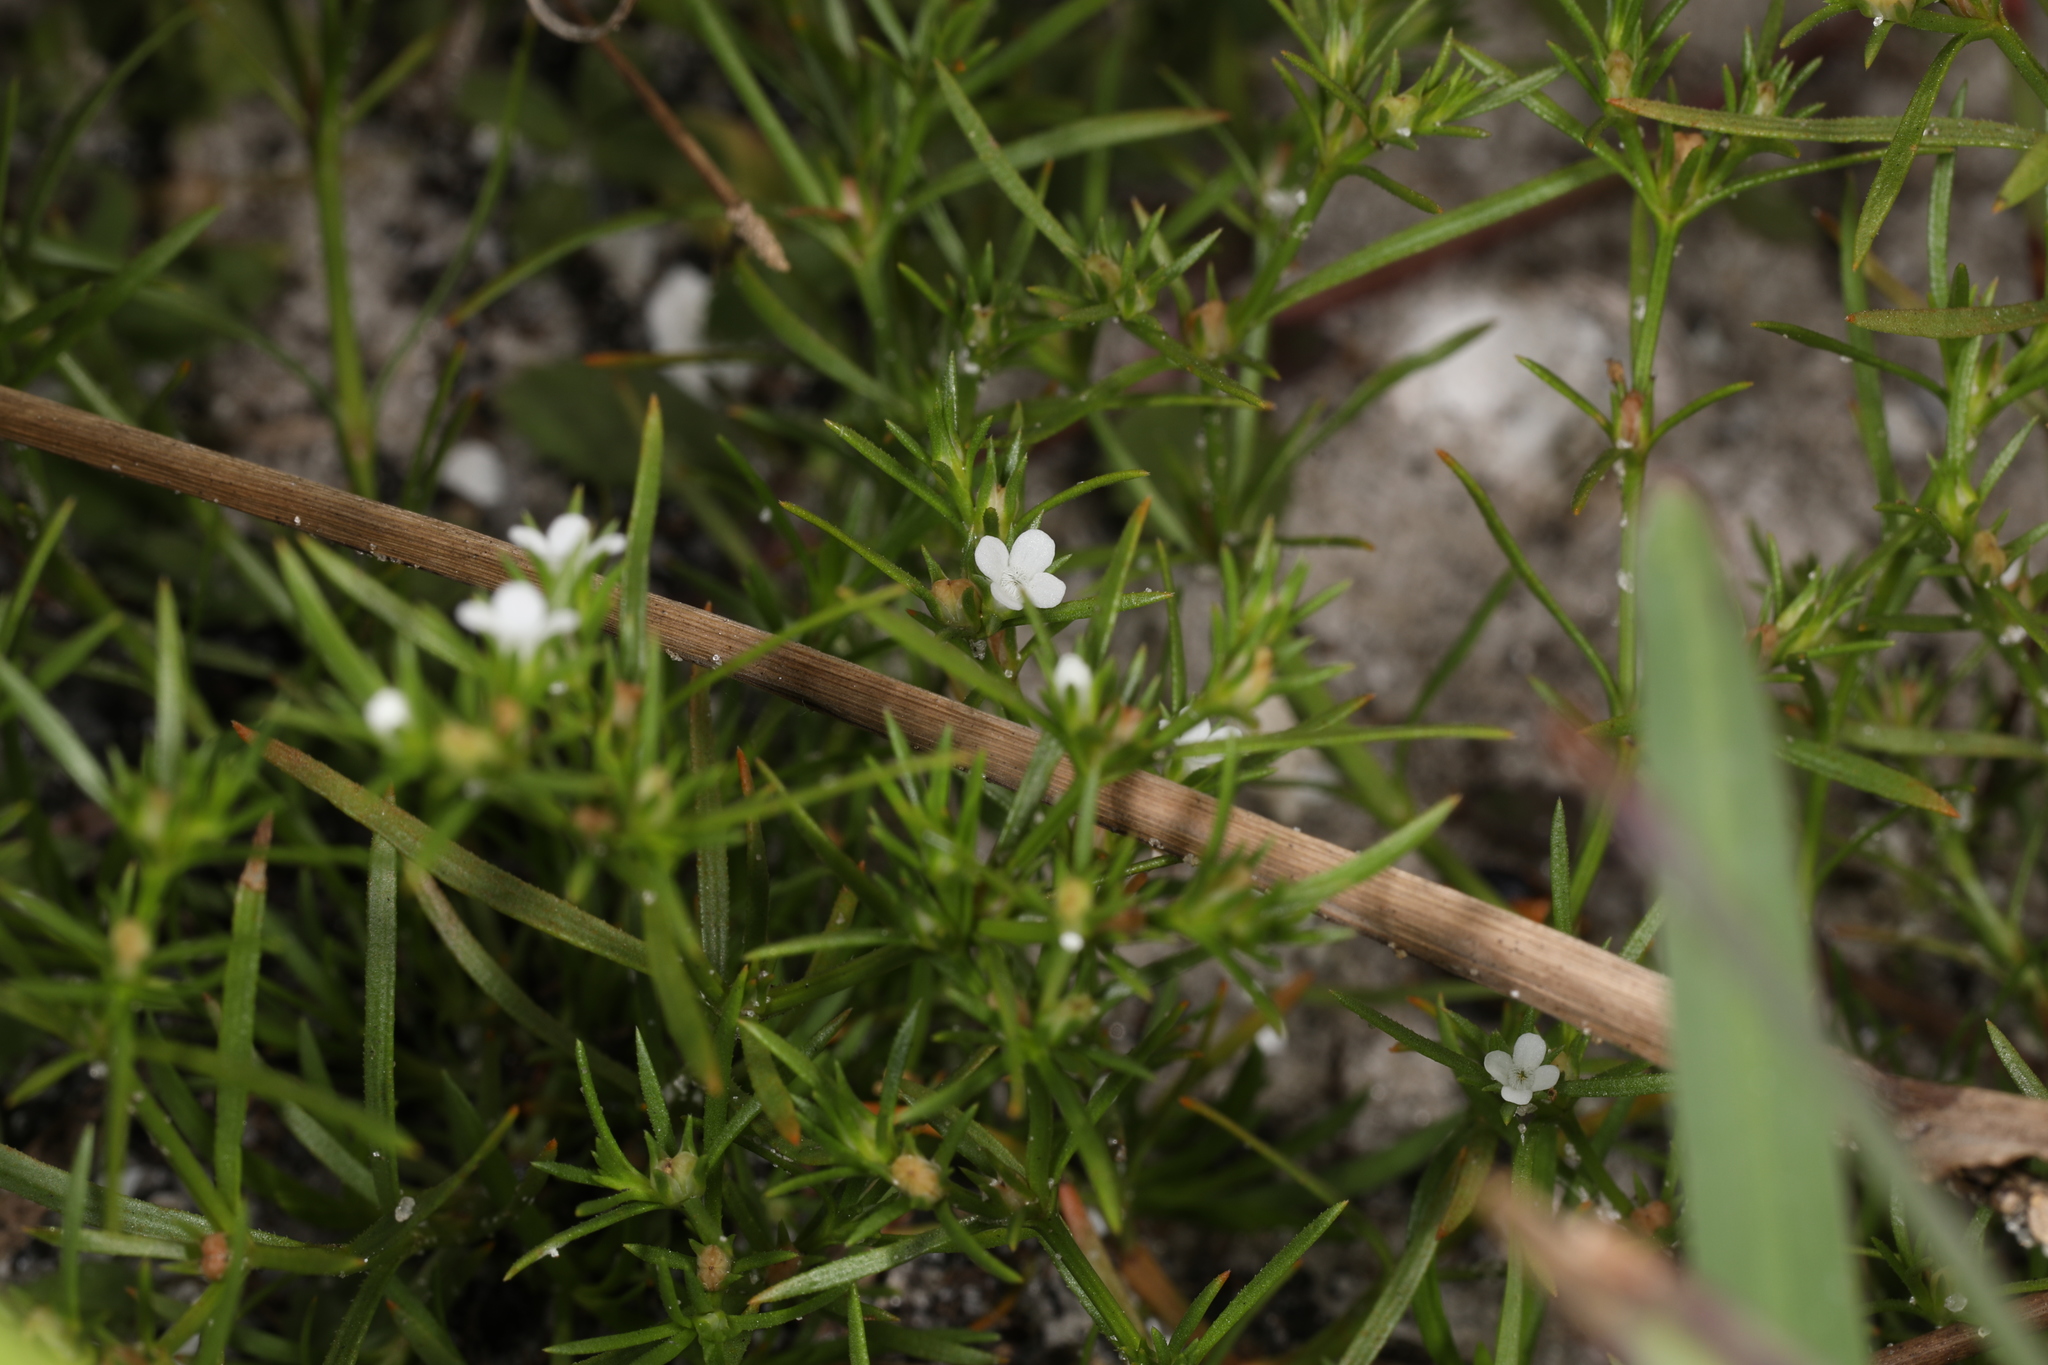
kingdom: Plantae
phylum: Tracheophyta
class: Magnoliopsida
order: Lamiales
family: Tetrachondraceae
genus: Polypremum
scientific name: Polypremum procumbens
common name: Juniper-leaf
